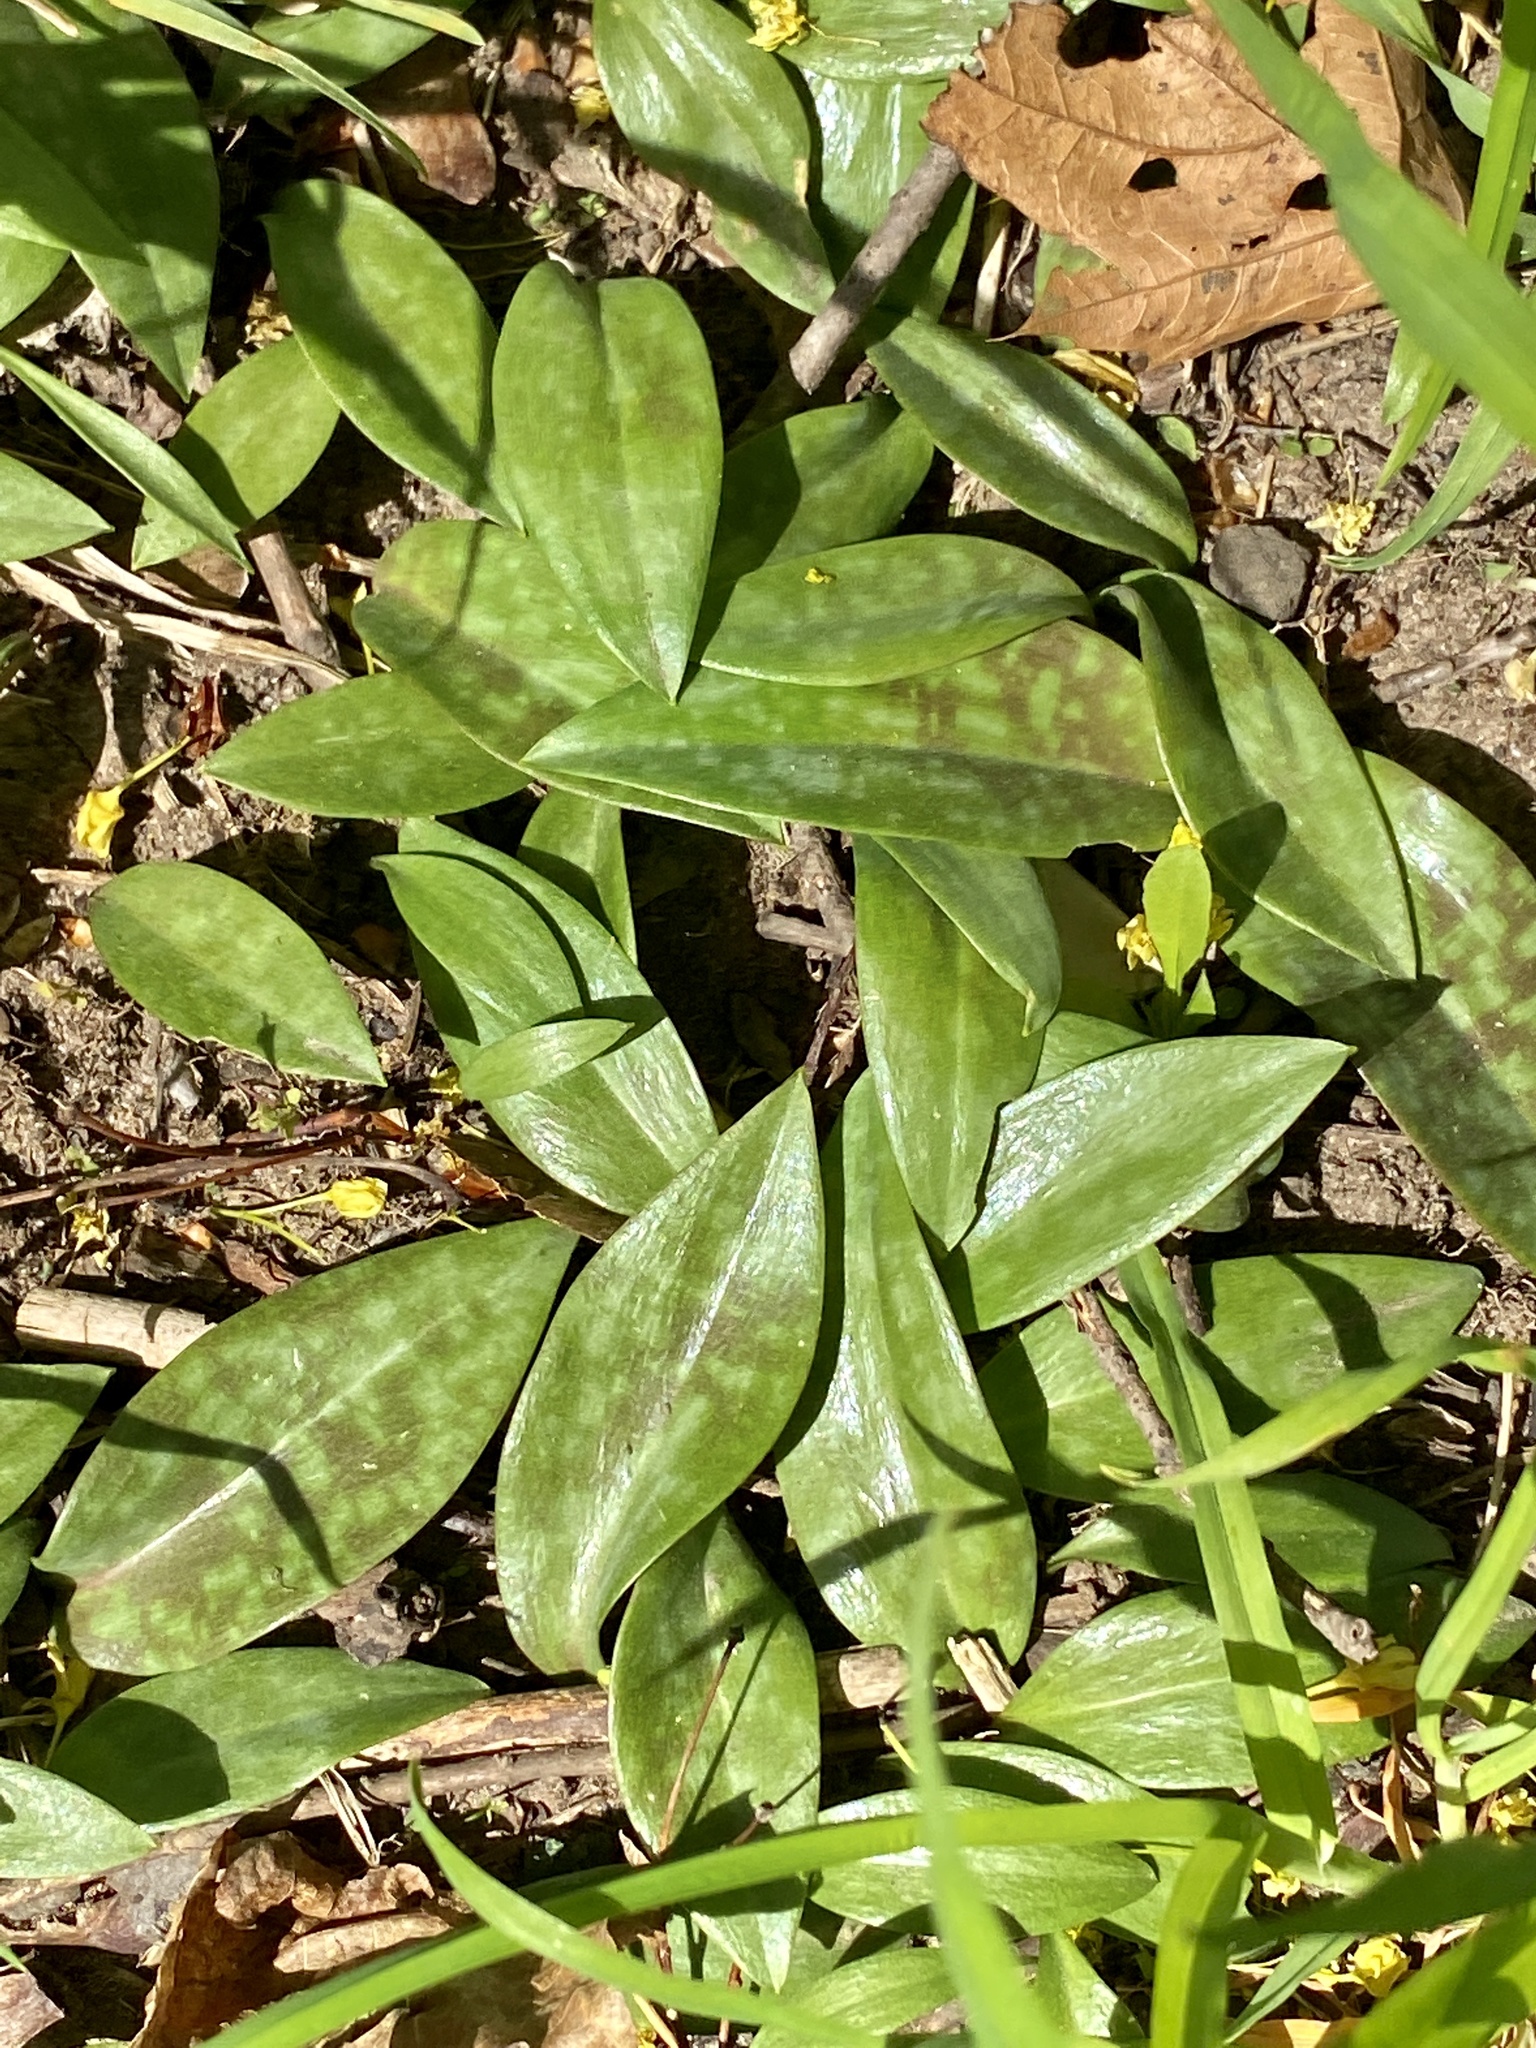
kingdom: Plantae
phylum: Tracheophyta
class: Liliopsida
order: Liliales
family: Liliaceae
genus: Erythronium
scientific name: Erythronium americanum
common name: Yellow adder's-tongue
